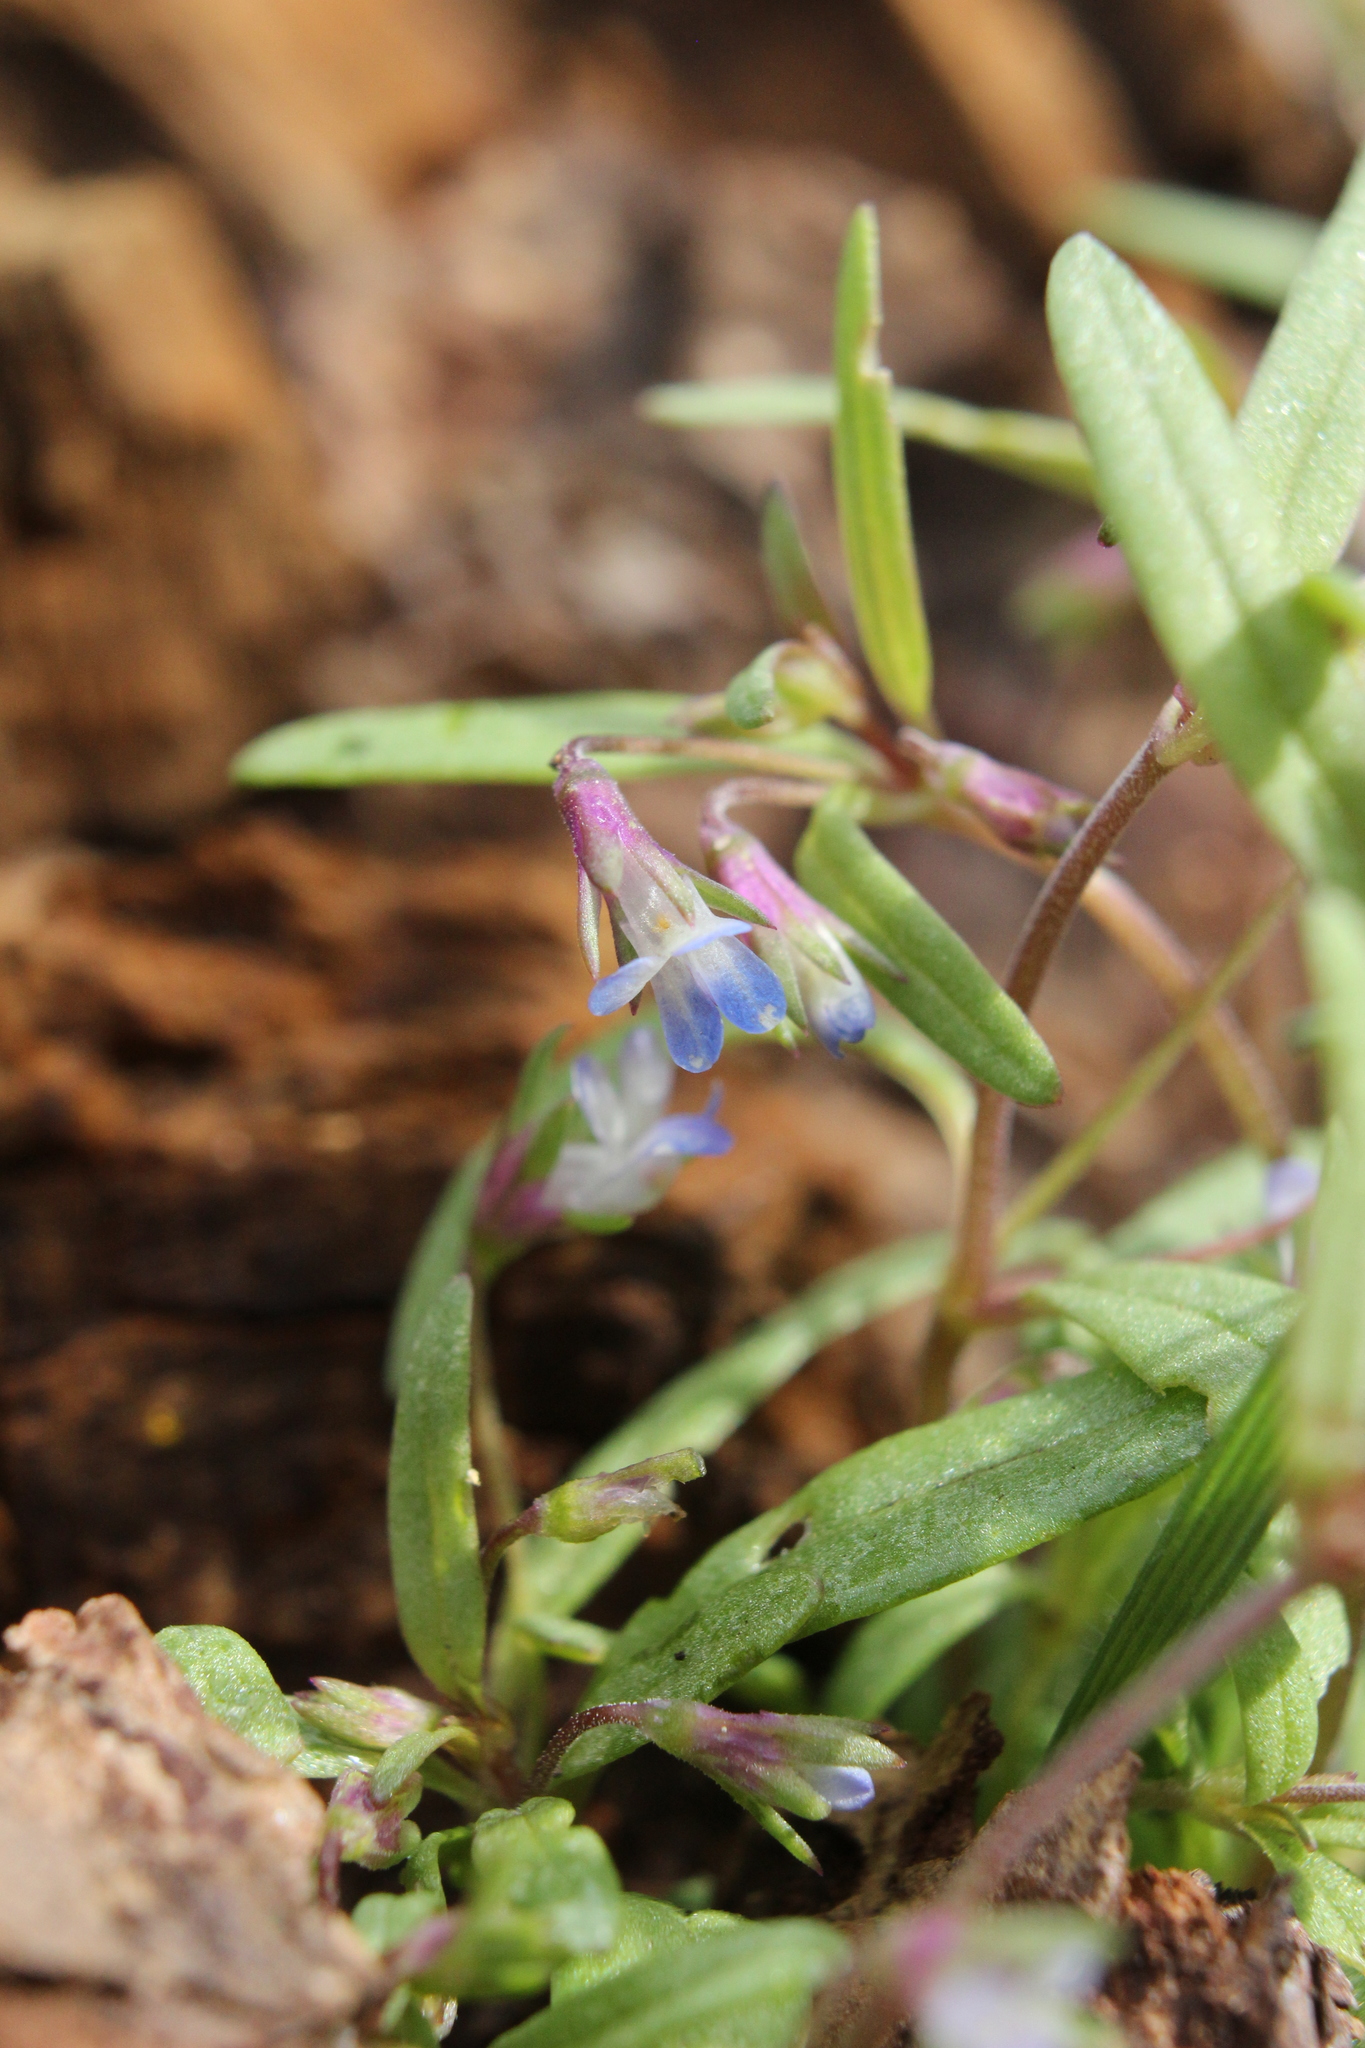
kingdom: Plantae
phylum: Tracheophyta
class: Magnoliopsida
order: Lamiales
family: Plantaginaceae
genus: Collinsia
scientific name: Collinsia parviflora
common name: Blue-lips
